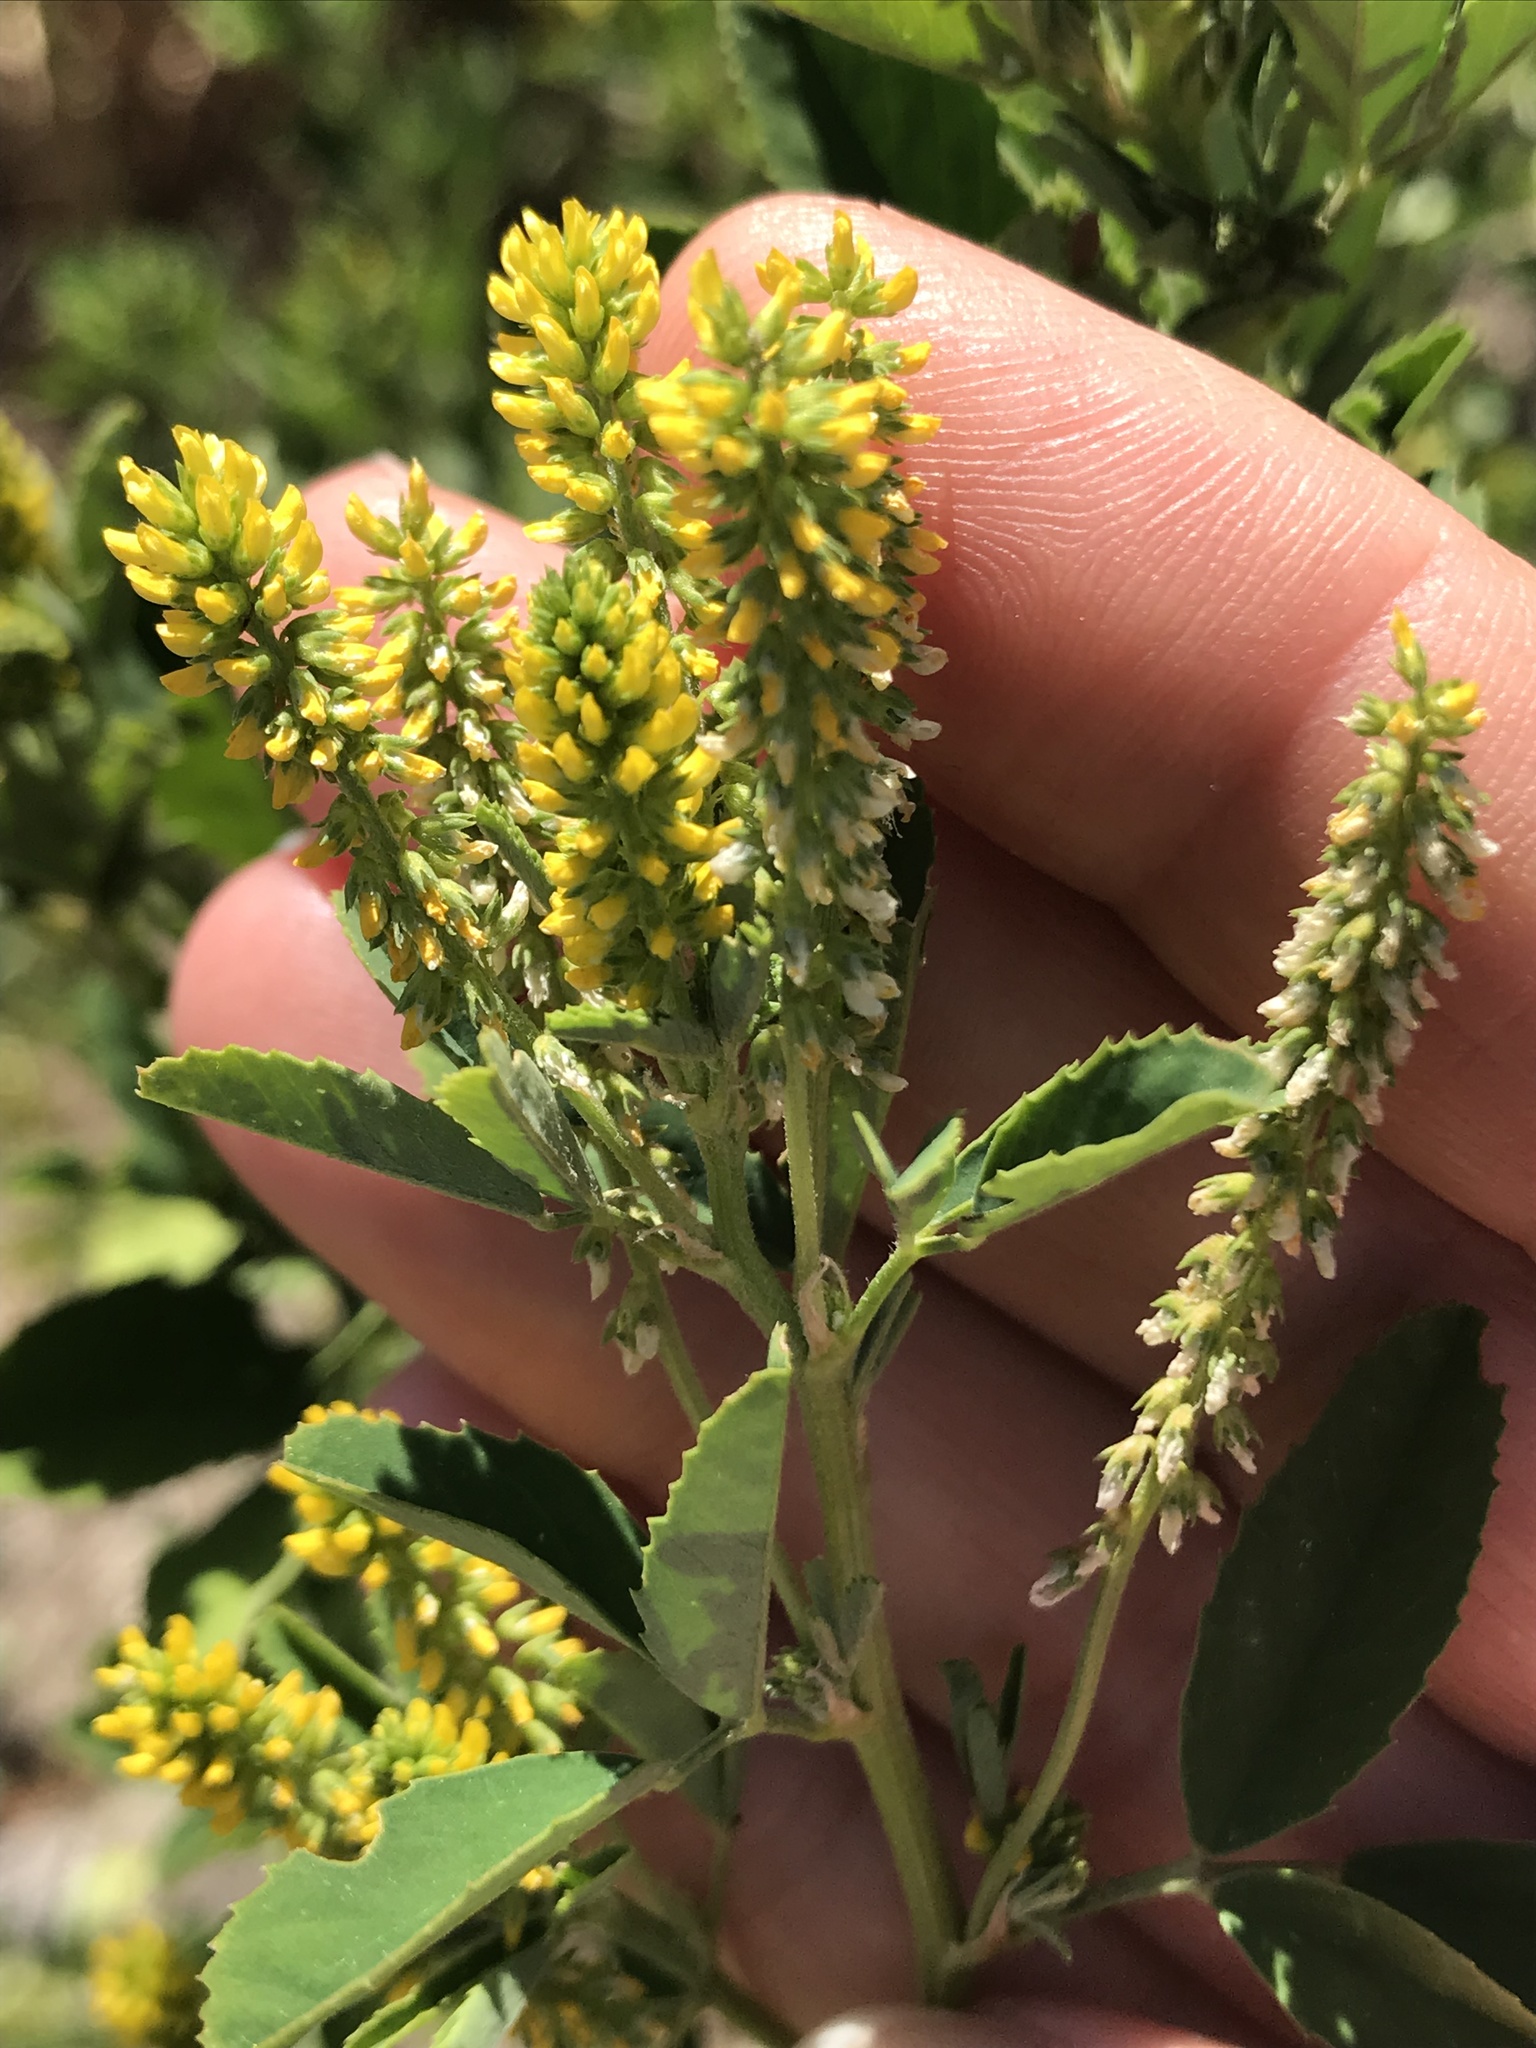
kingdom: Plantae
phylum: Tracheophyta
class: Magnoliopsida
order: Fabales
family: Fabaceae
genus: Melilotus
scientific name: Melilotus indicus
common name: Small melilot
